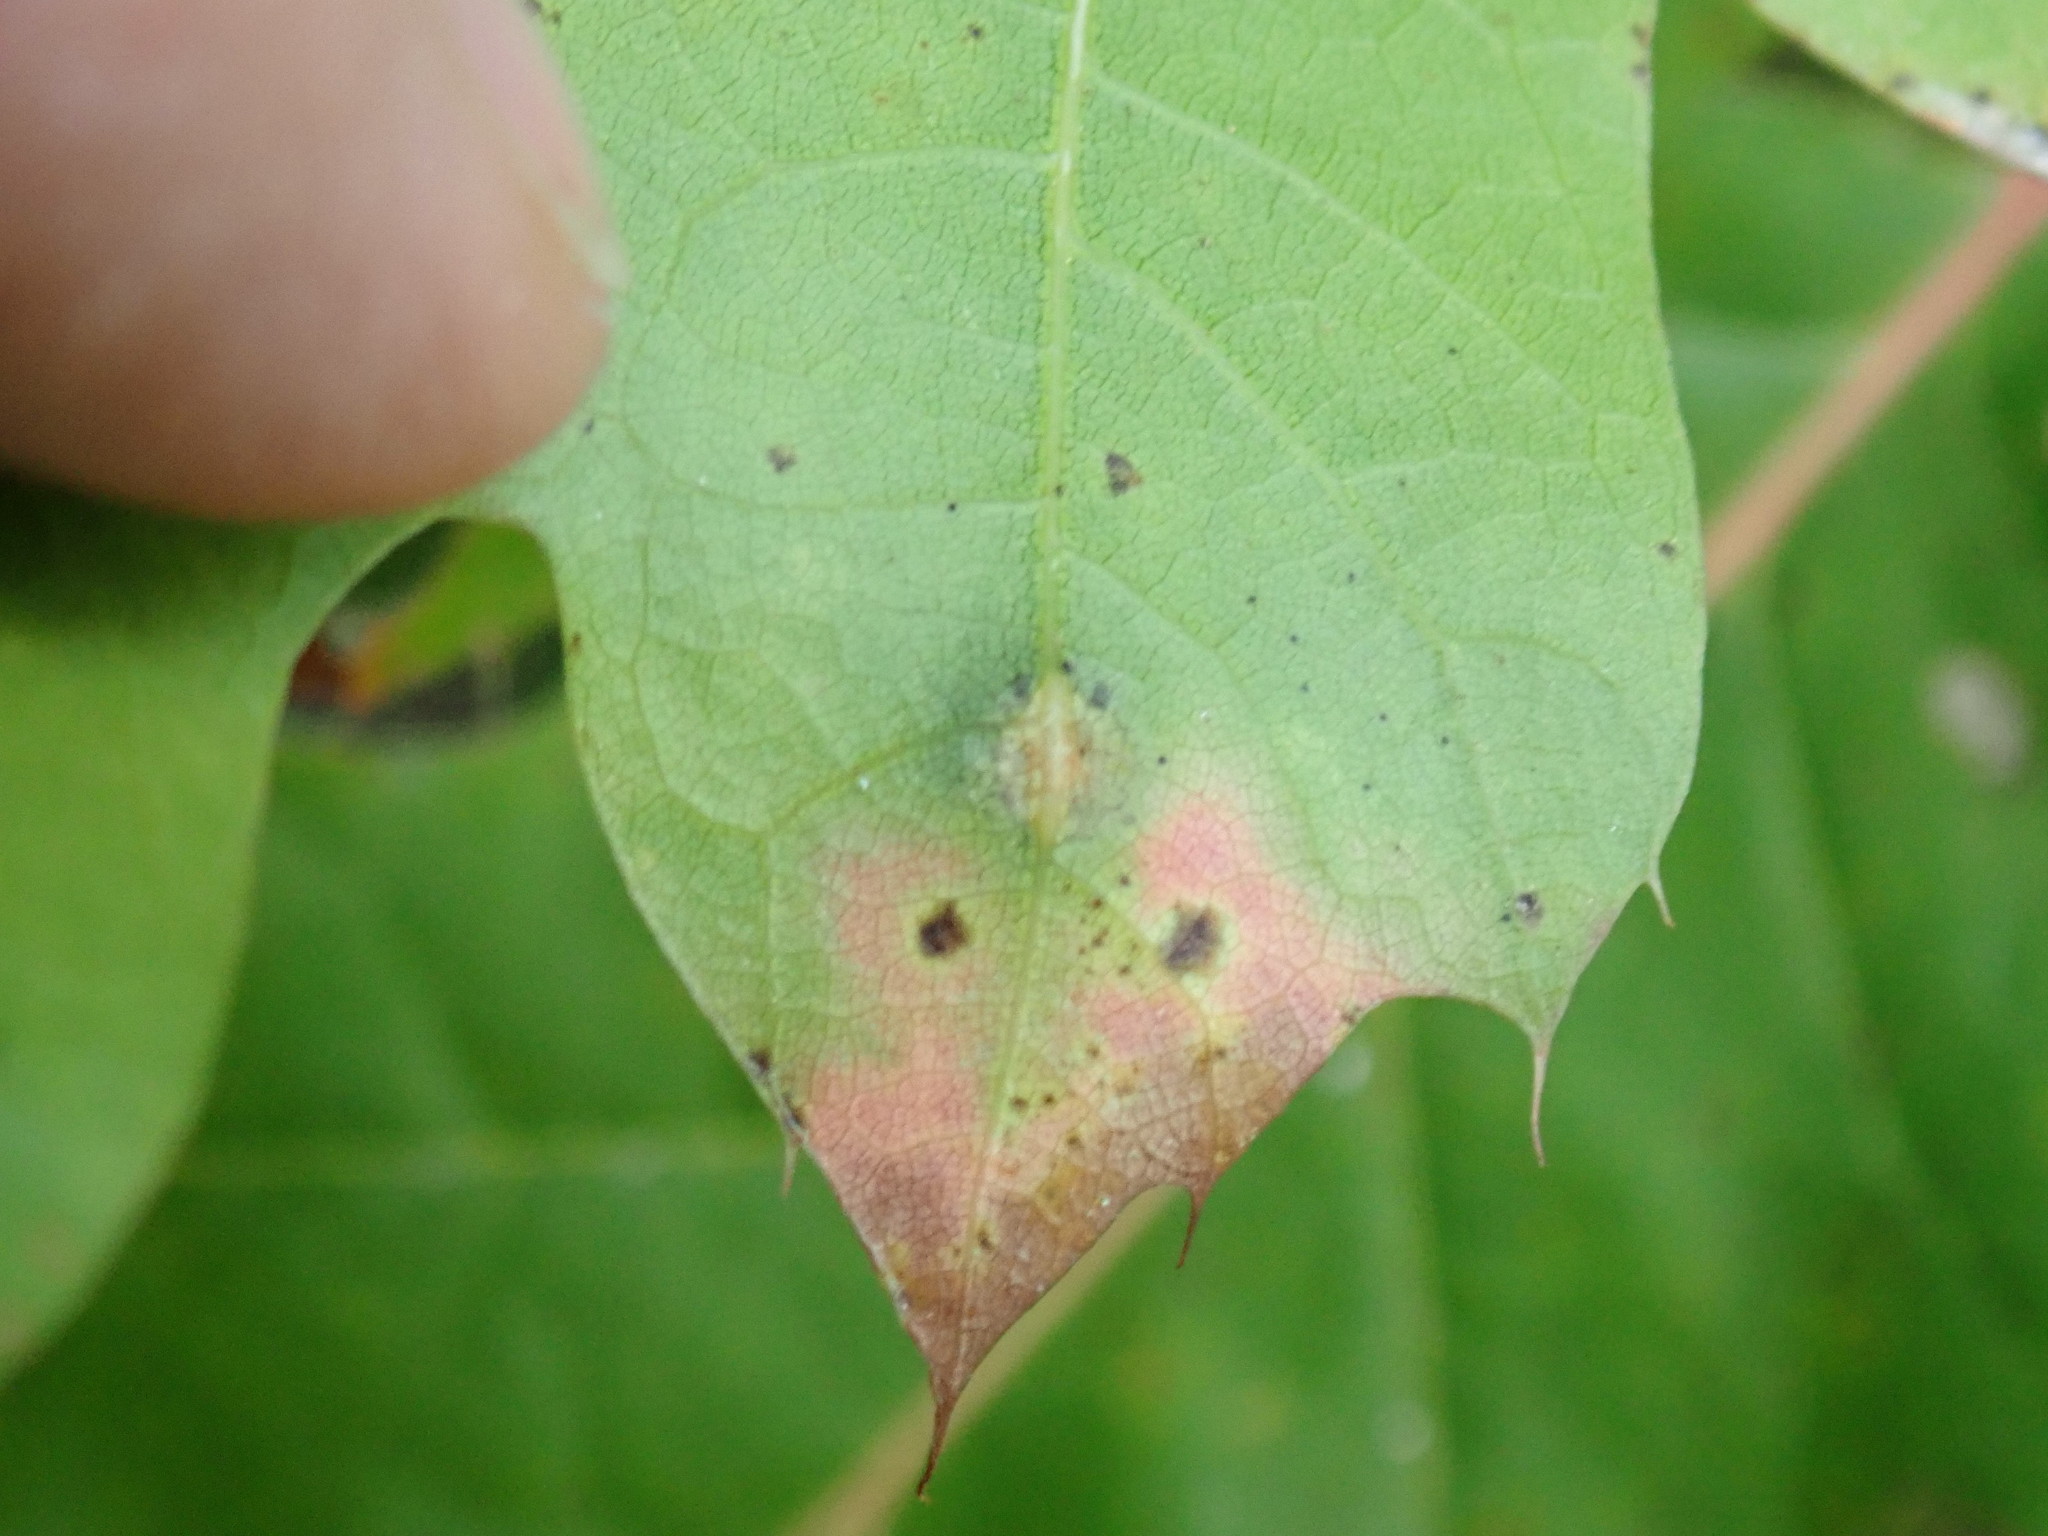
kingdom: Animalia
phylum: Arthropoda
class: Insecta
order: Diptera
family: Cecidomyiidae
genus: Polystepha
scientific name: Polystepha pilulae
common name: Oak leaf gall midge
